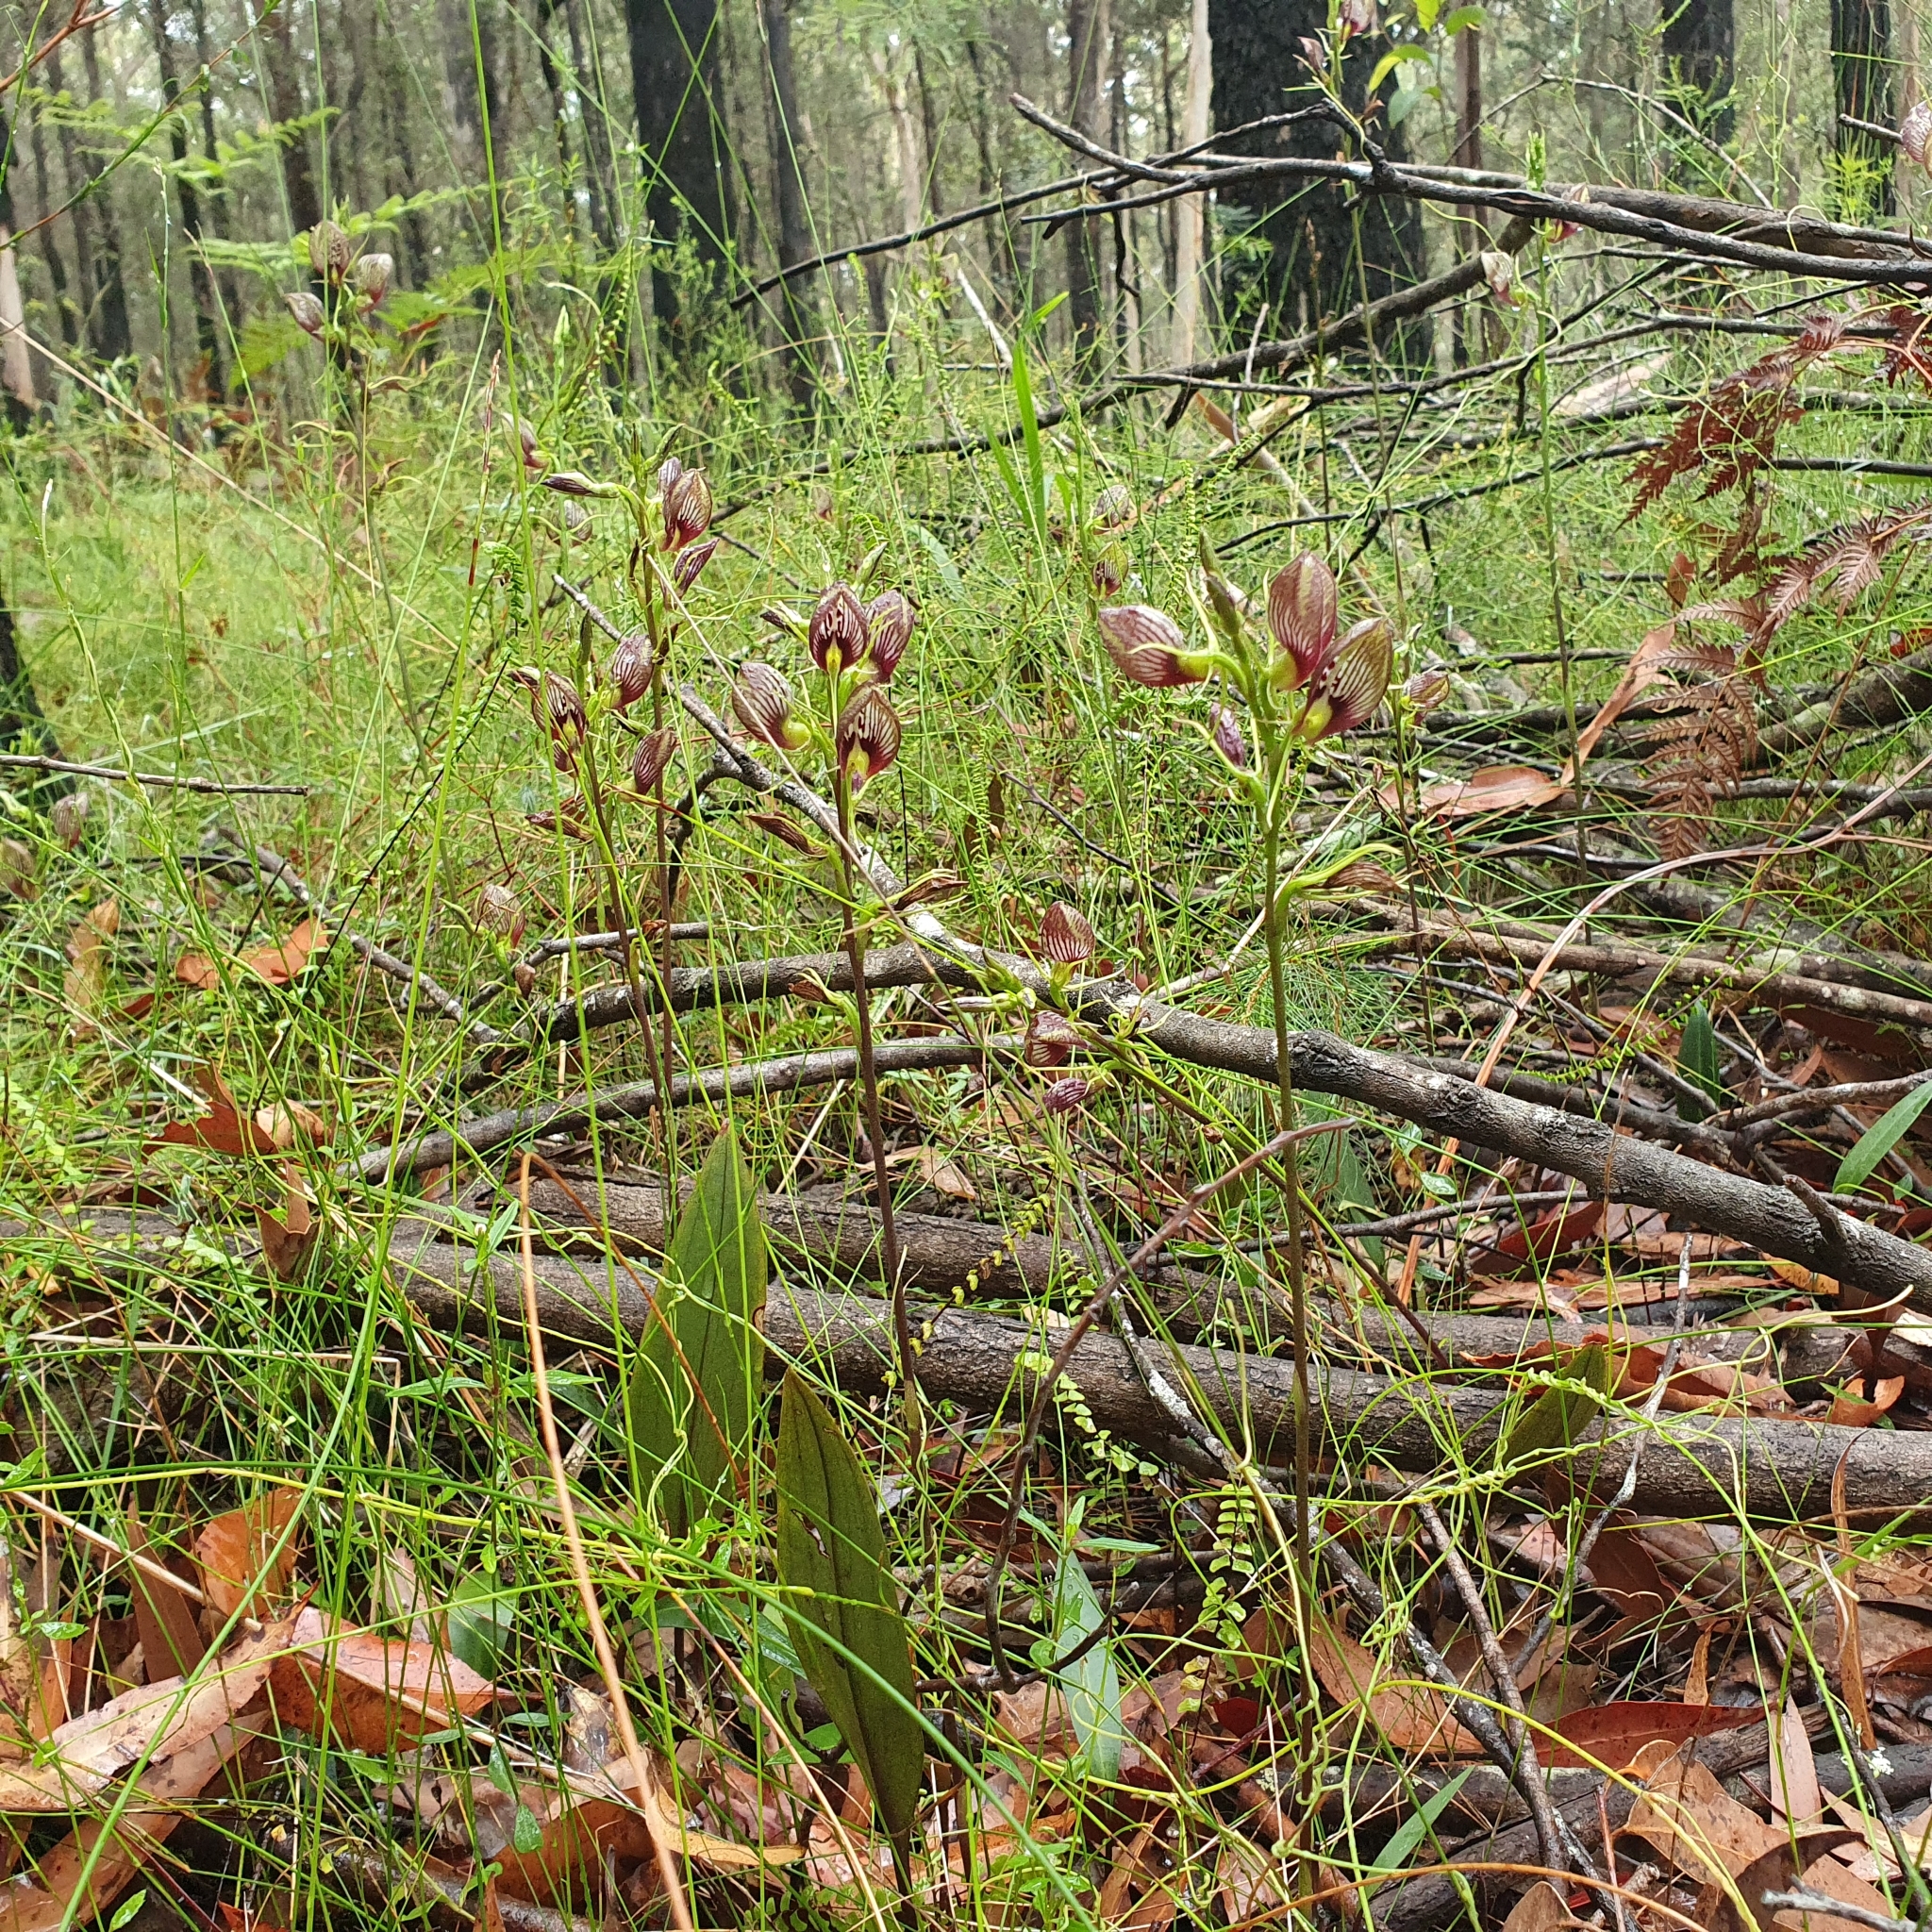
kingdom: Plantae
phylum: Tracheophyta
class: Liliopsida
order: Asparagales
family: Orchidaceae
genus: Cryptostylis
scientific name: Cryptostylis erecta
